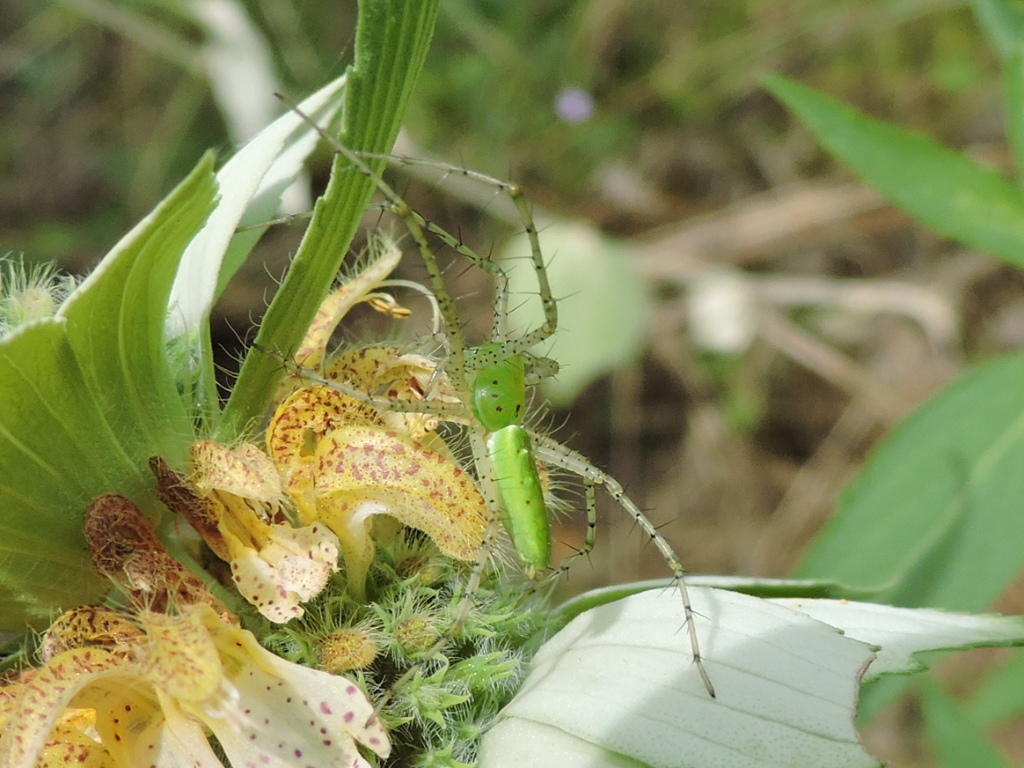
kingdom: Animalia
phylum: Arthropoda
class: Arachnida
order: Araneae
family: Oxyopidae
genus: Peucetia
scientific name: Peucetia viridans
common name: Lynx spiders
